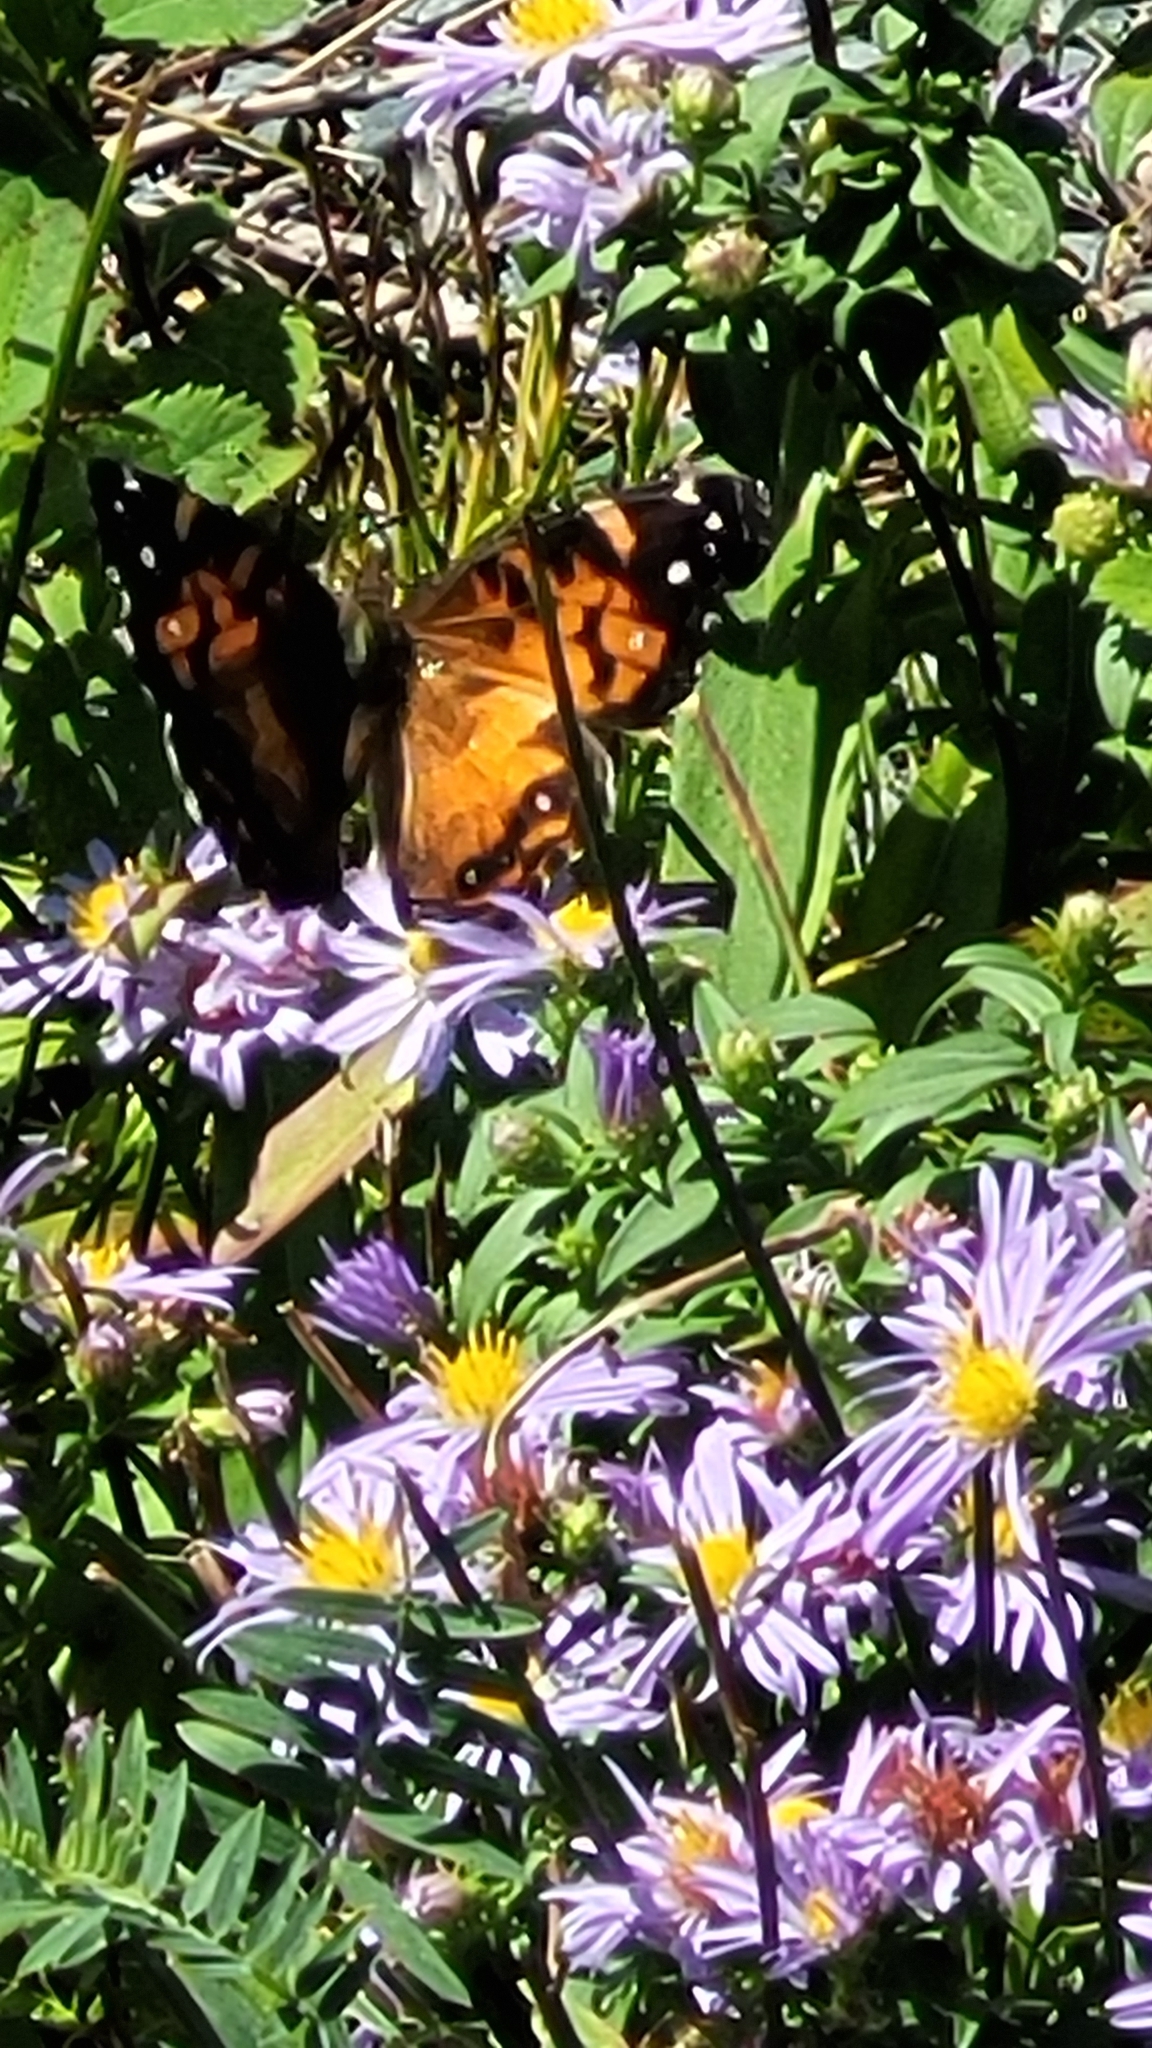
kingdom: Animalia
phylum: Arthropoda
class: Insecta
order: Lepidoptera
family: Nymphalidae
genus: Vanessa
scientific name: Vanessa virginiensis
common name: American lady
